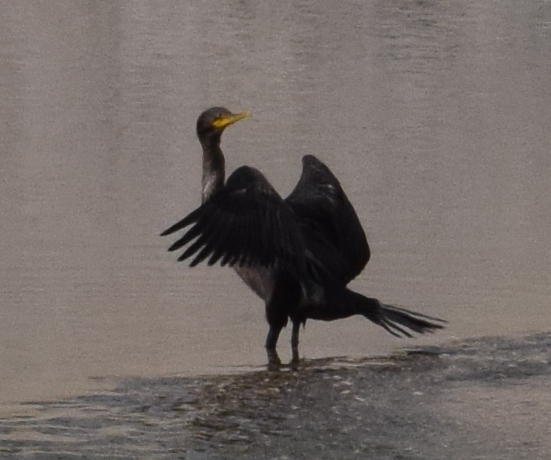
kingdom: Animalia
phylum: Chordata
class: Aves
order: Suliformes
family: Phalacrocoracidae
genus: Phalacrocorax
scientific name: Phalacrocorax auritus
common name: Double-crested cormorant
